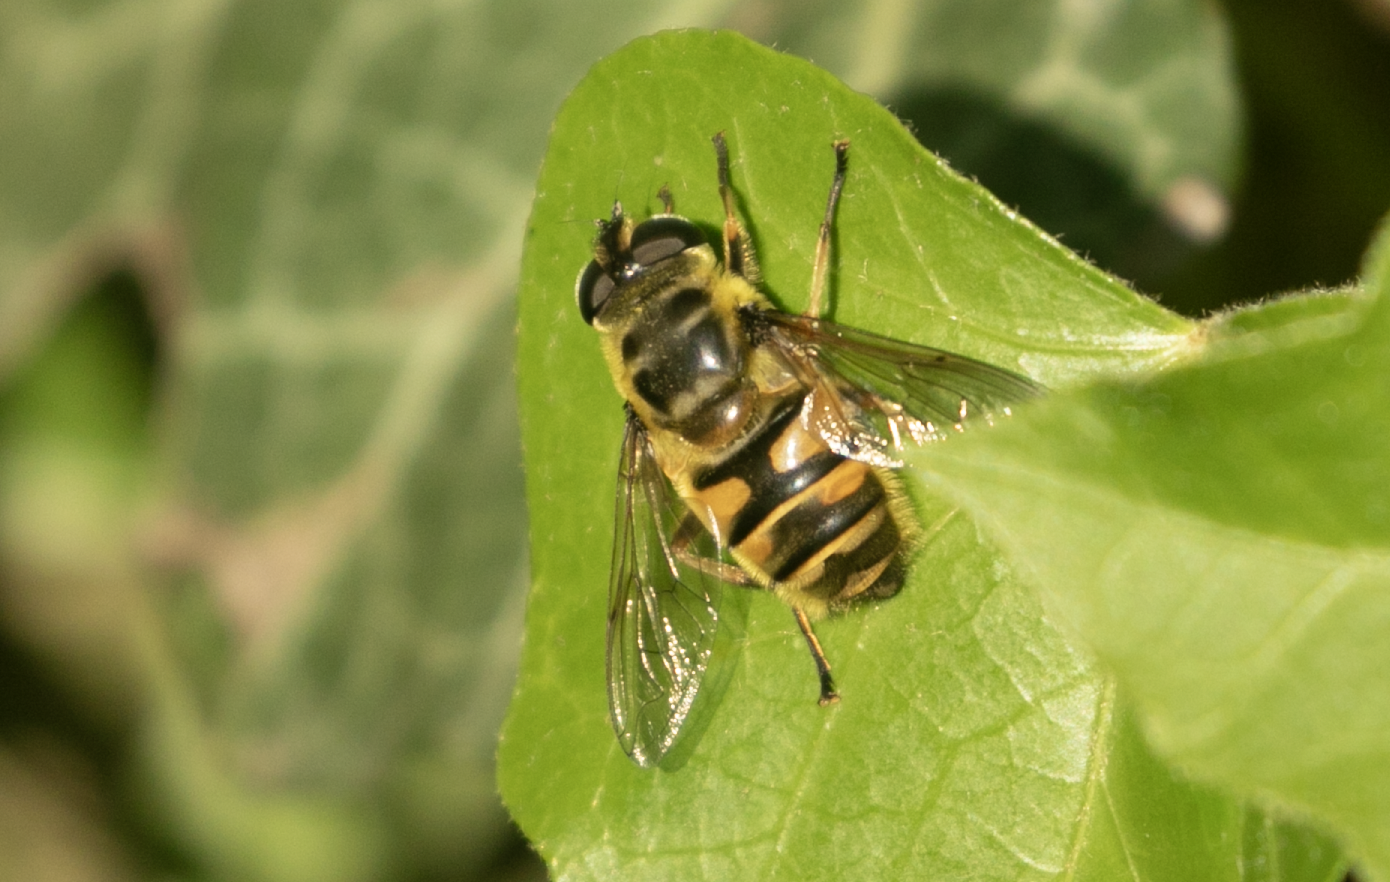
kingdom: Animalia
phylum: Arthropoda
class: Insecta
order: Diptera
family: Syrphidae
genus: Myathropa
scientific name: Myathropa florea
